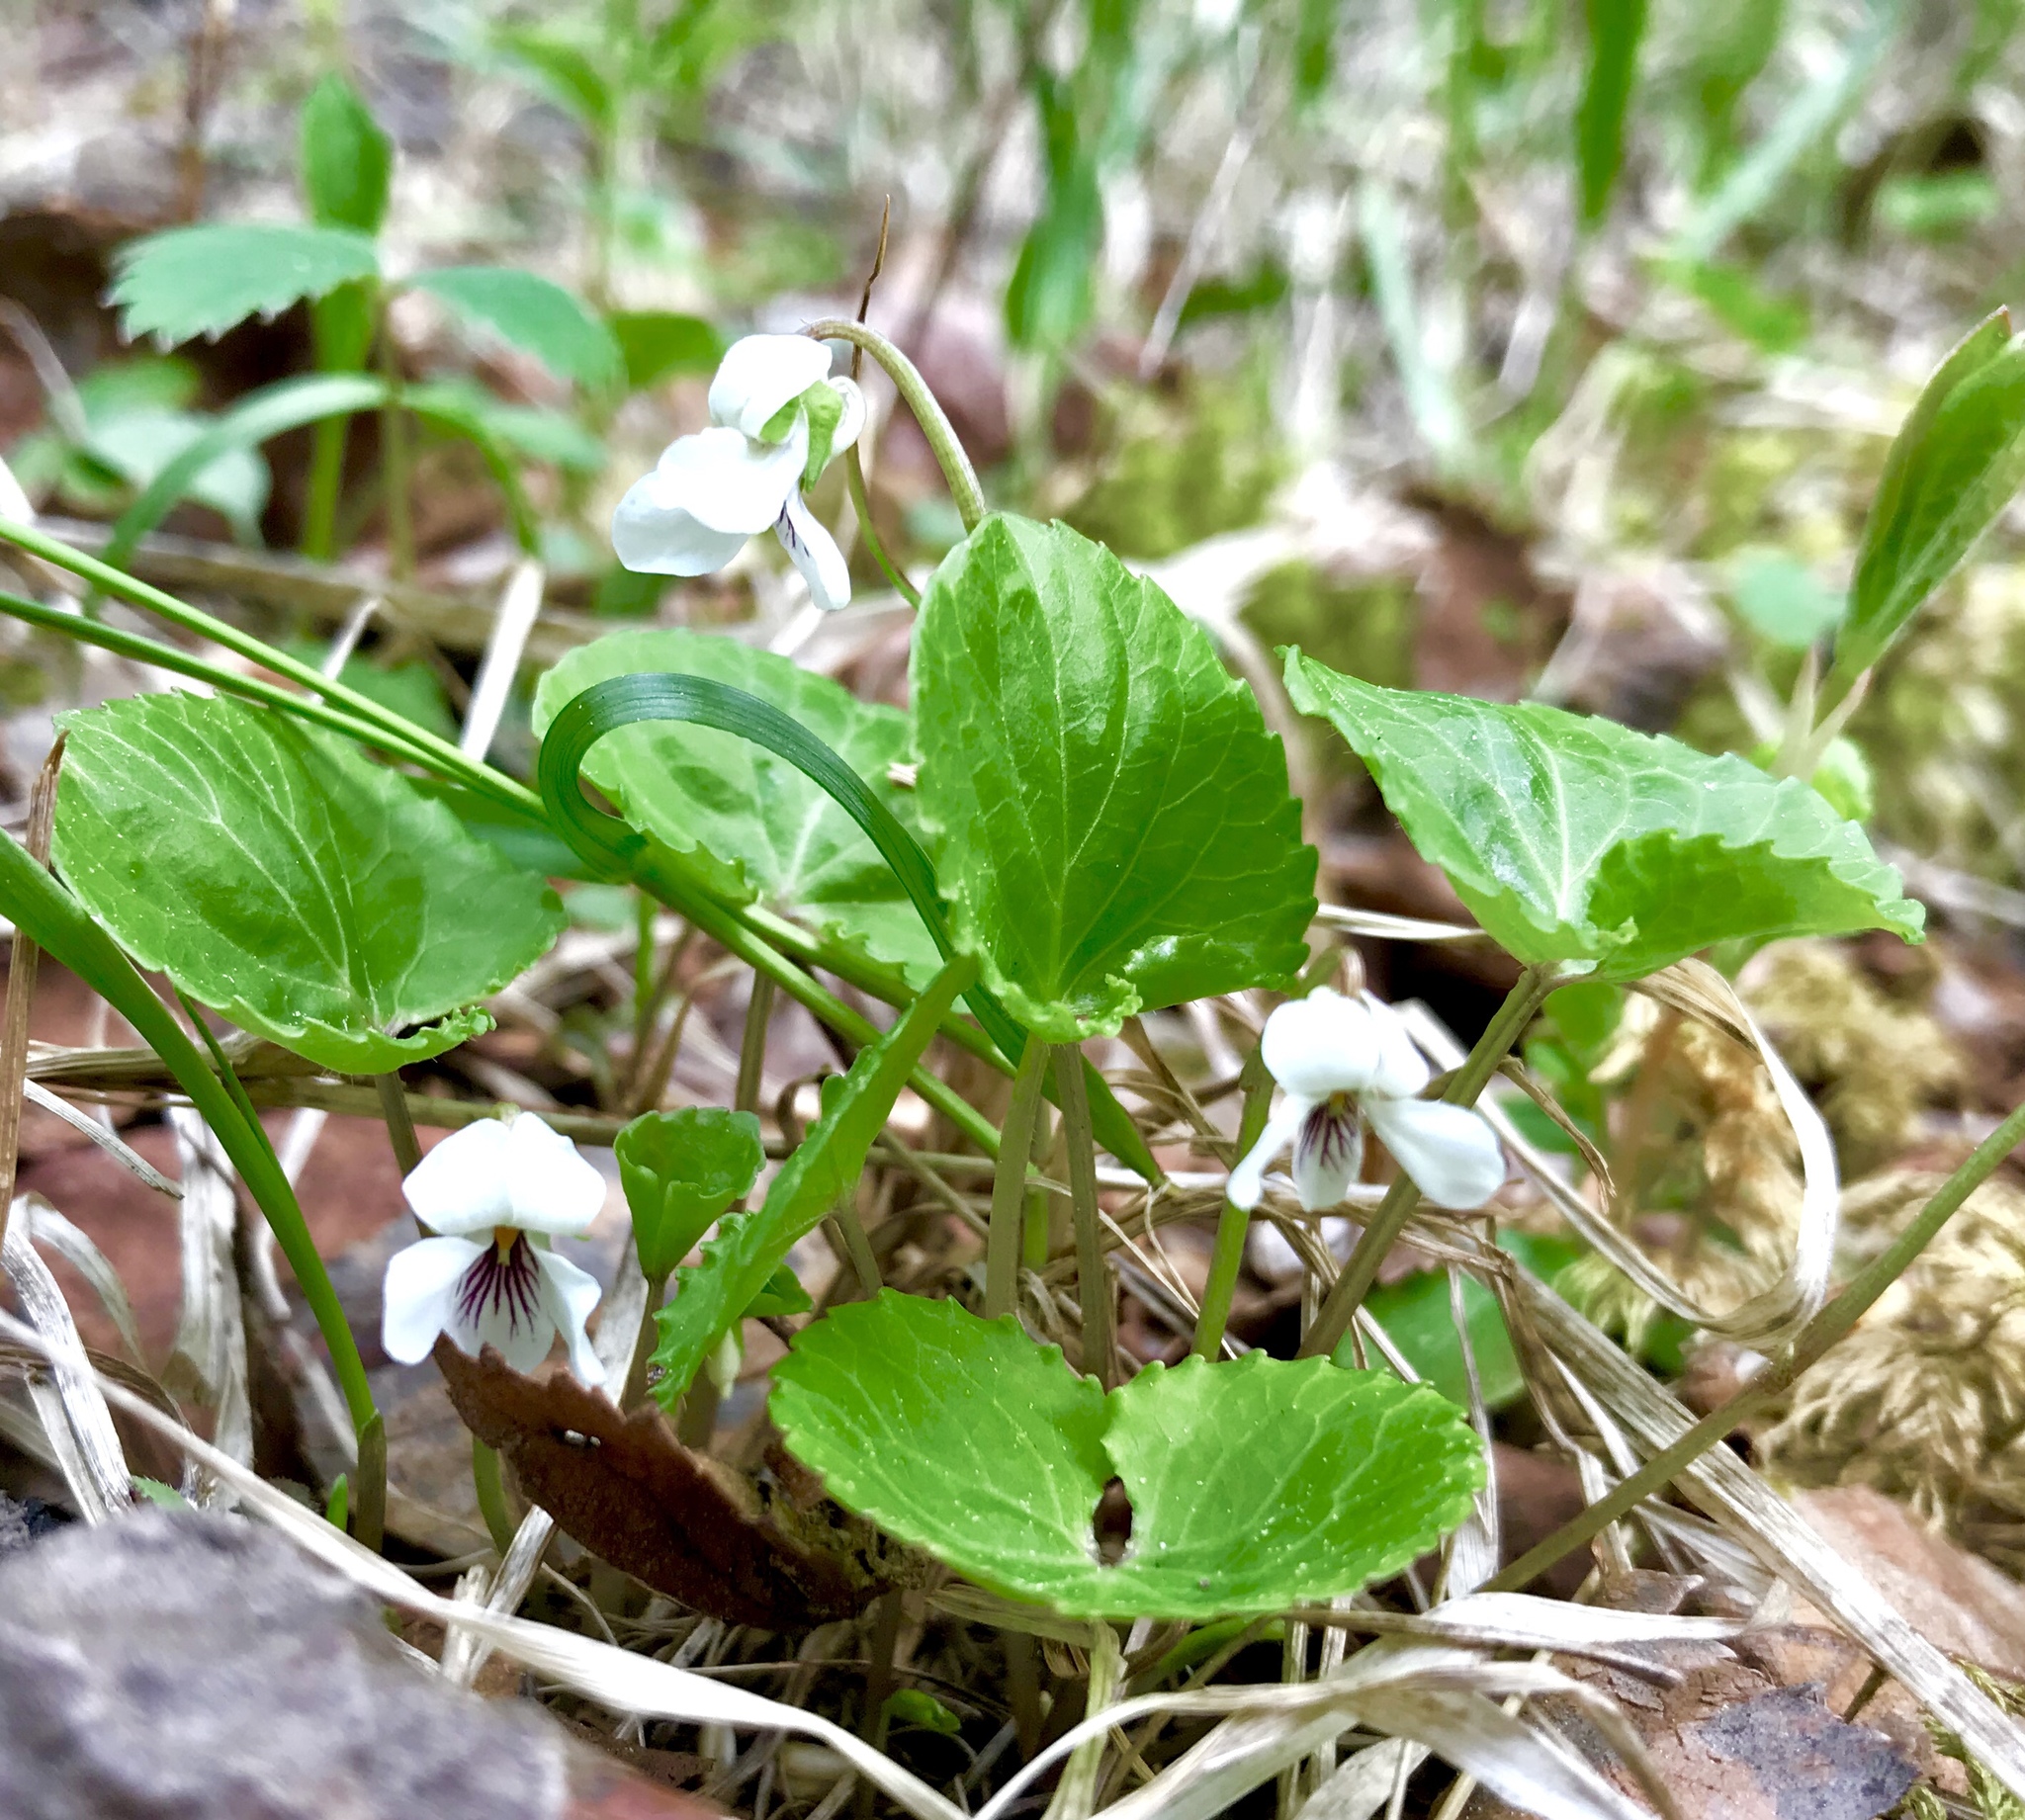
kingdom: Plantae
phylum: Tracheophyta
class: Magnoliopsida
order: Malpighiales
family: Violaceae
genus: Viola
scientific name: Viola renifolia
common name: Kidney-leaf violet
